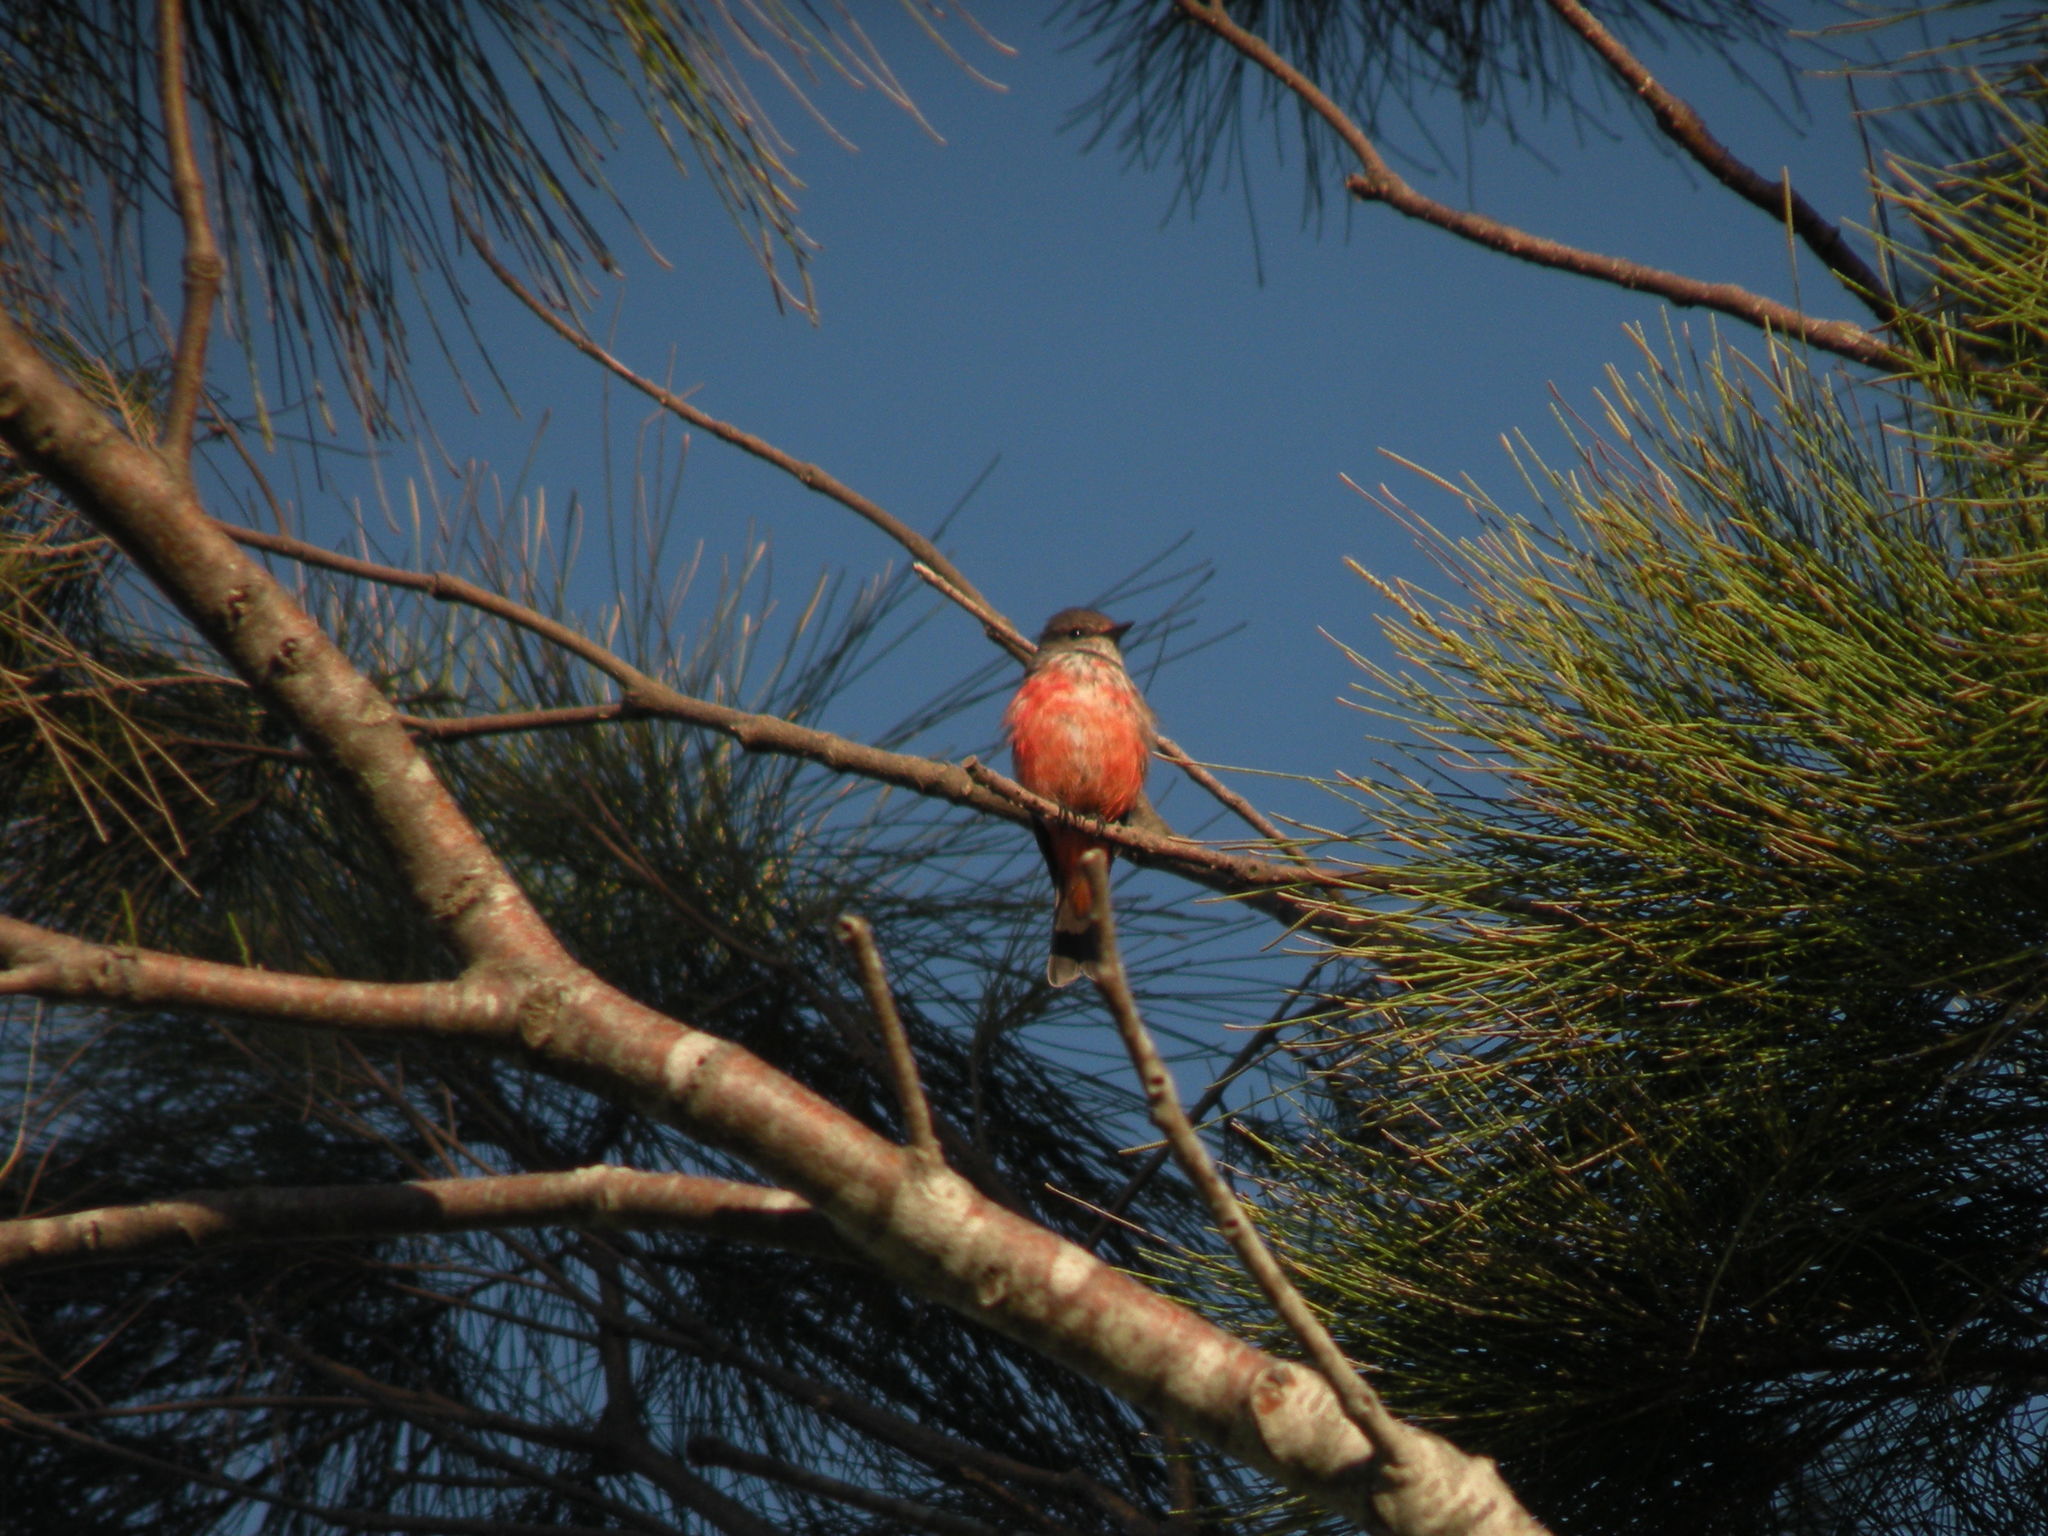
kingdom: Animalia
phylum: Chordata
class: Aves
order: Passeriformes
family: Tyrannidae
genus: Pyrocephalus
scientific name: Pyrocephalus rubinus
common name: Vermilion flycatcher
